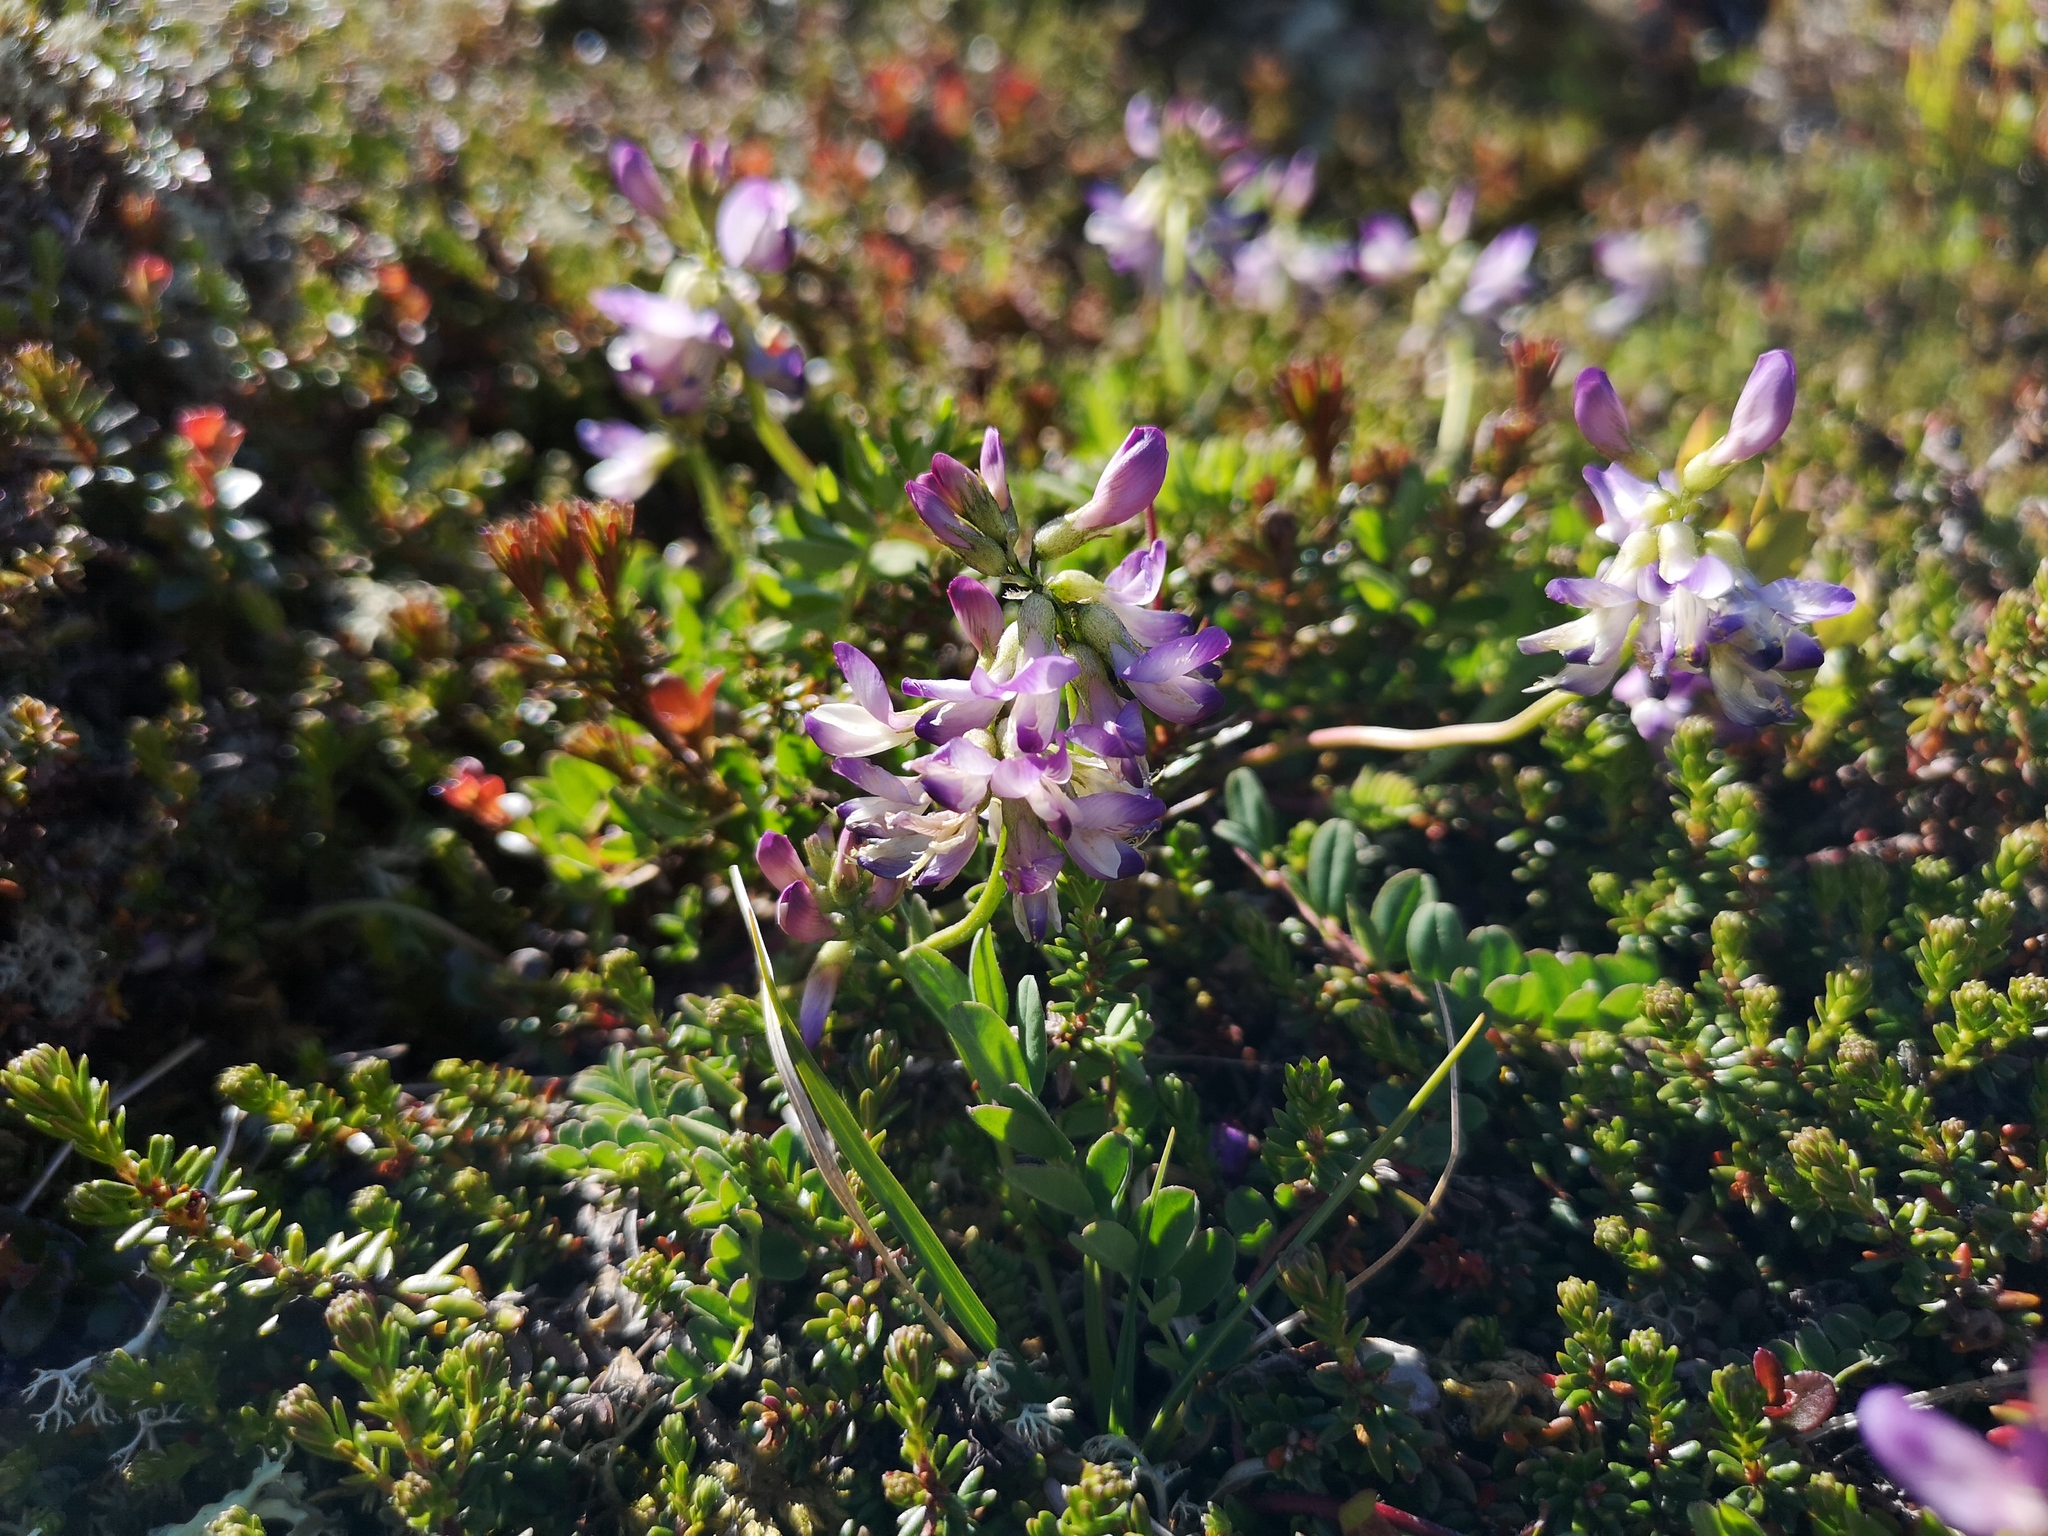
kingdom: Plantae
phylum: Tracheophyta
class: Magnoliopsida
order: Fabales
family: Fabaceae
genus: Astragalus
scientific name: Astragalus alpinus
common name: Alpine milk-vetch
